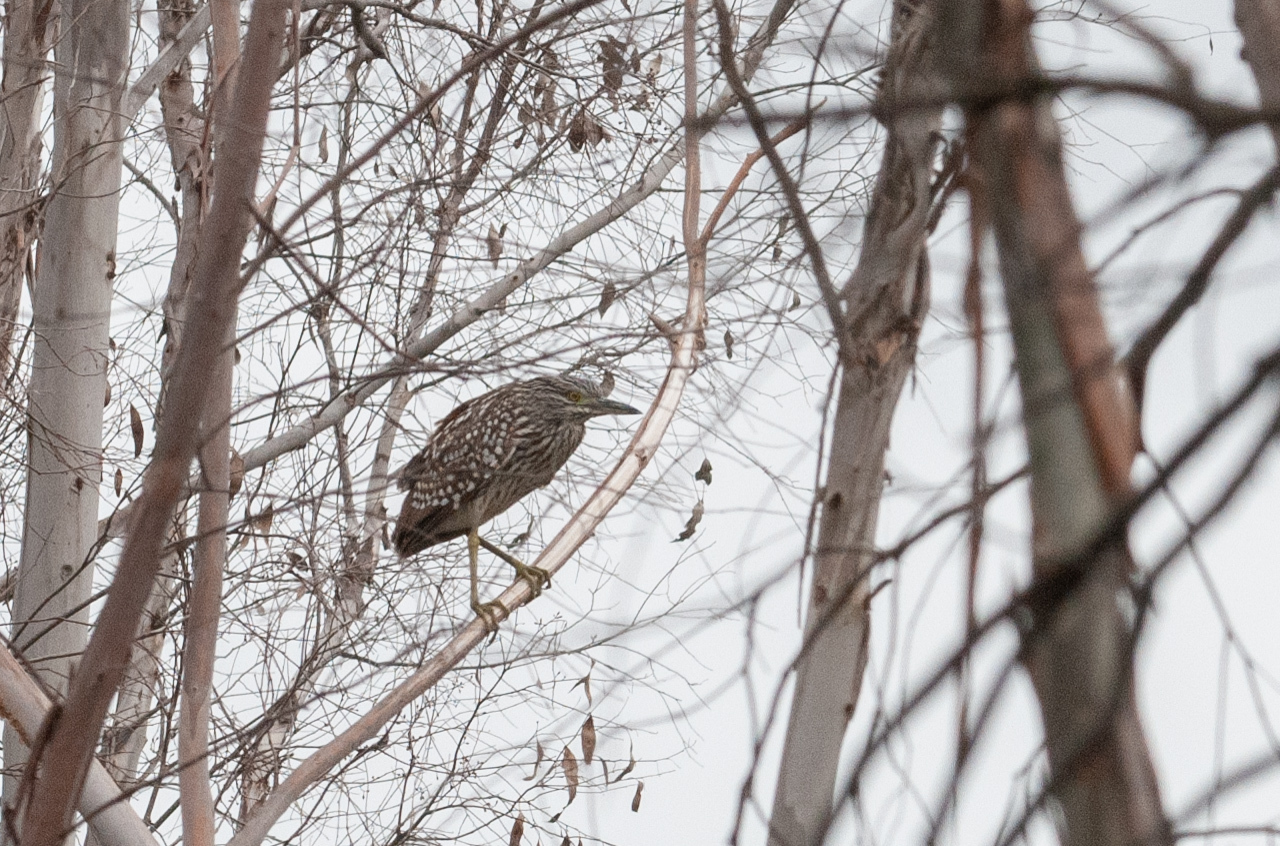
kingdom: Animalia
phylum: Chordata
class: Aves
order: Pelecaniformes
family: Ardeidae
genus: Nycticorax
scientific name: Nycticorax caledonicus
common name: Rufous night-heron
